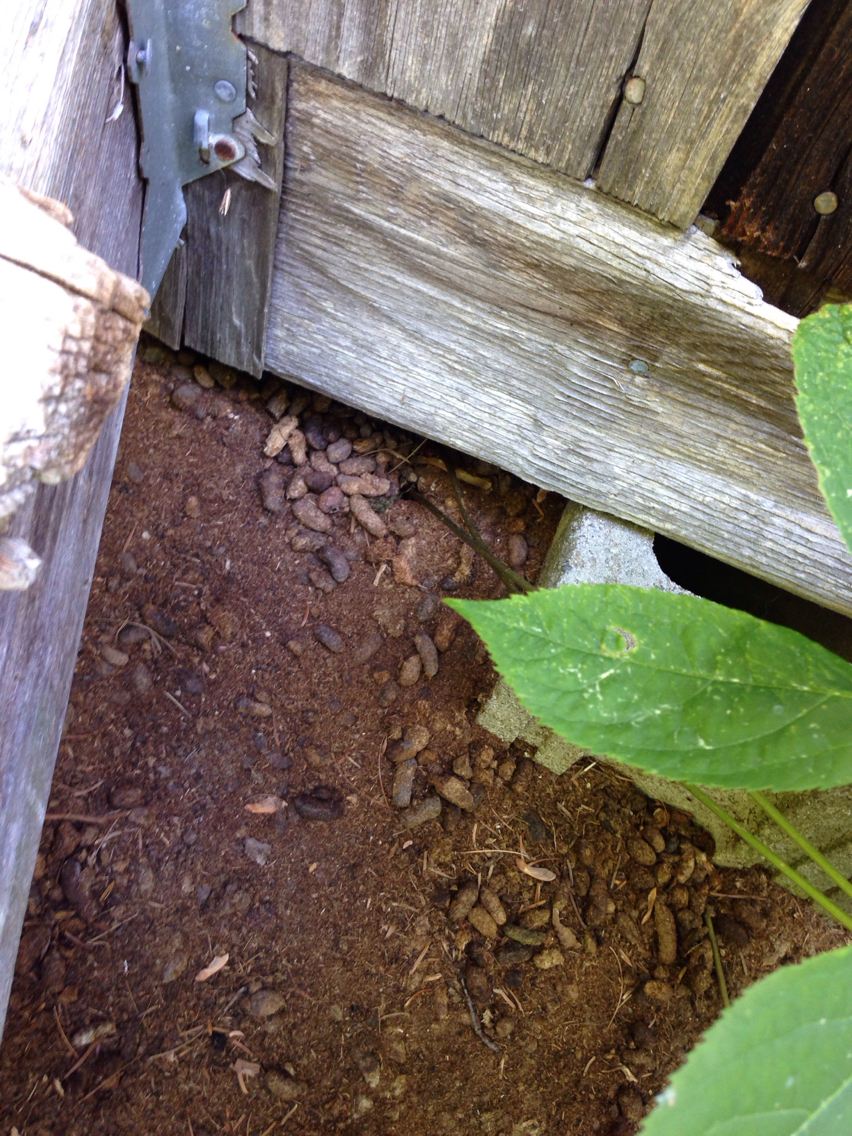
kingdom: Animalia
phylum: Chordata
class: Mammalia
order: Rodentia
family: Erethizontidae
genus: Erethizon
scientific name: Erethizon dorsatus
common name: North american porcupine
